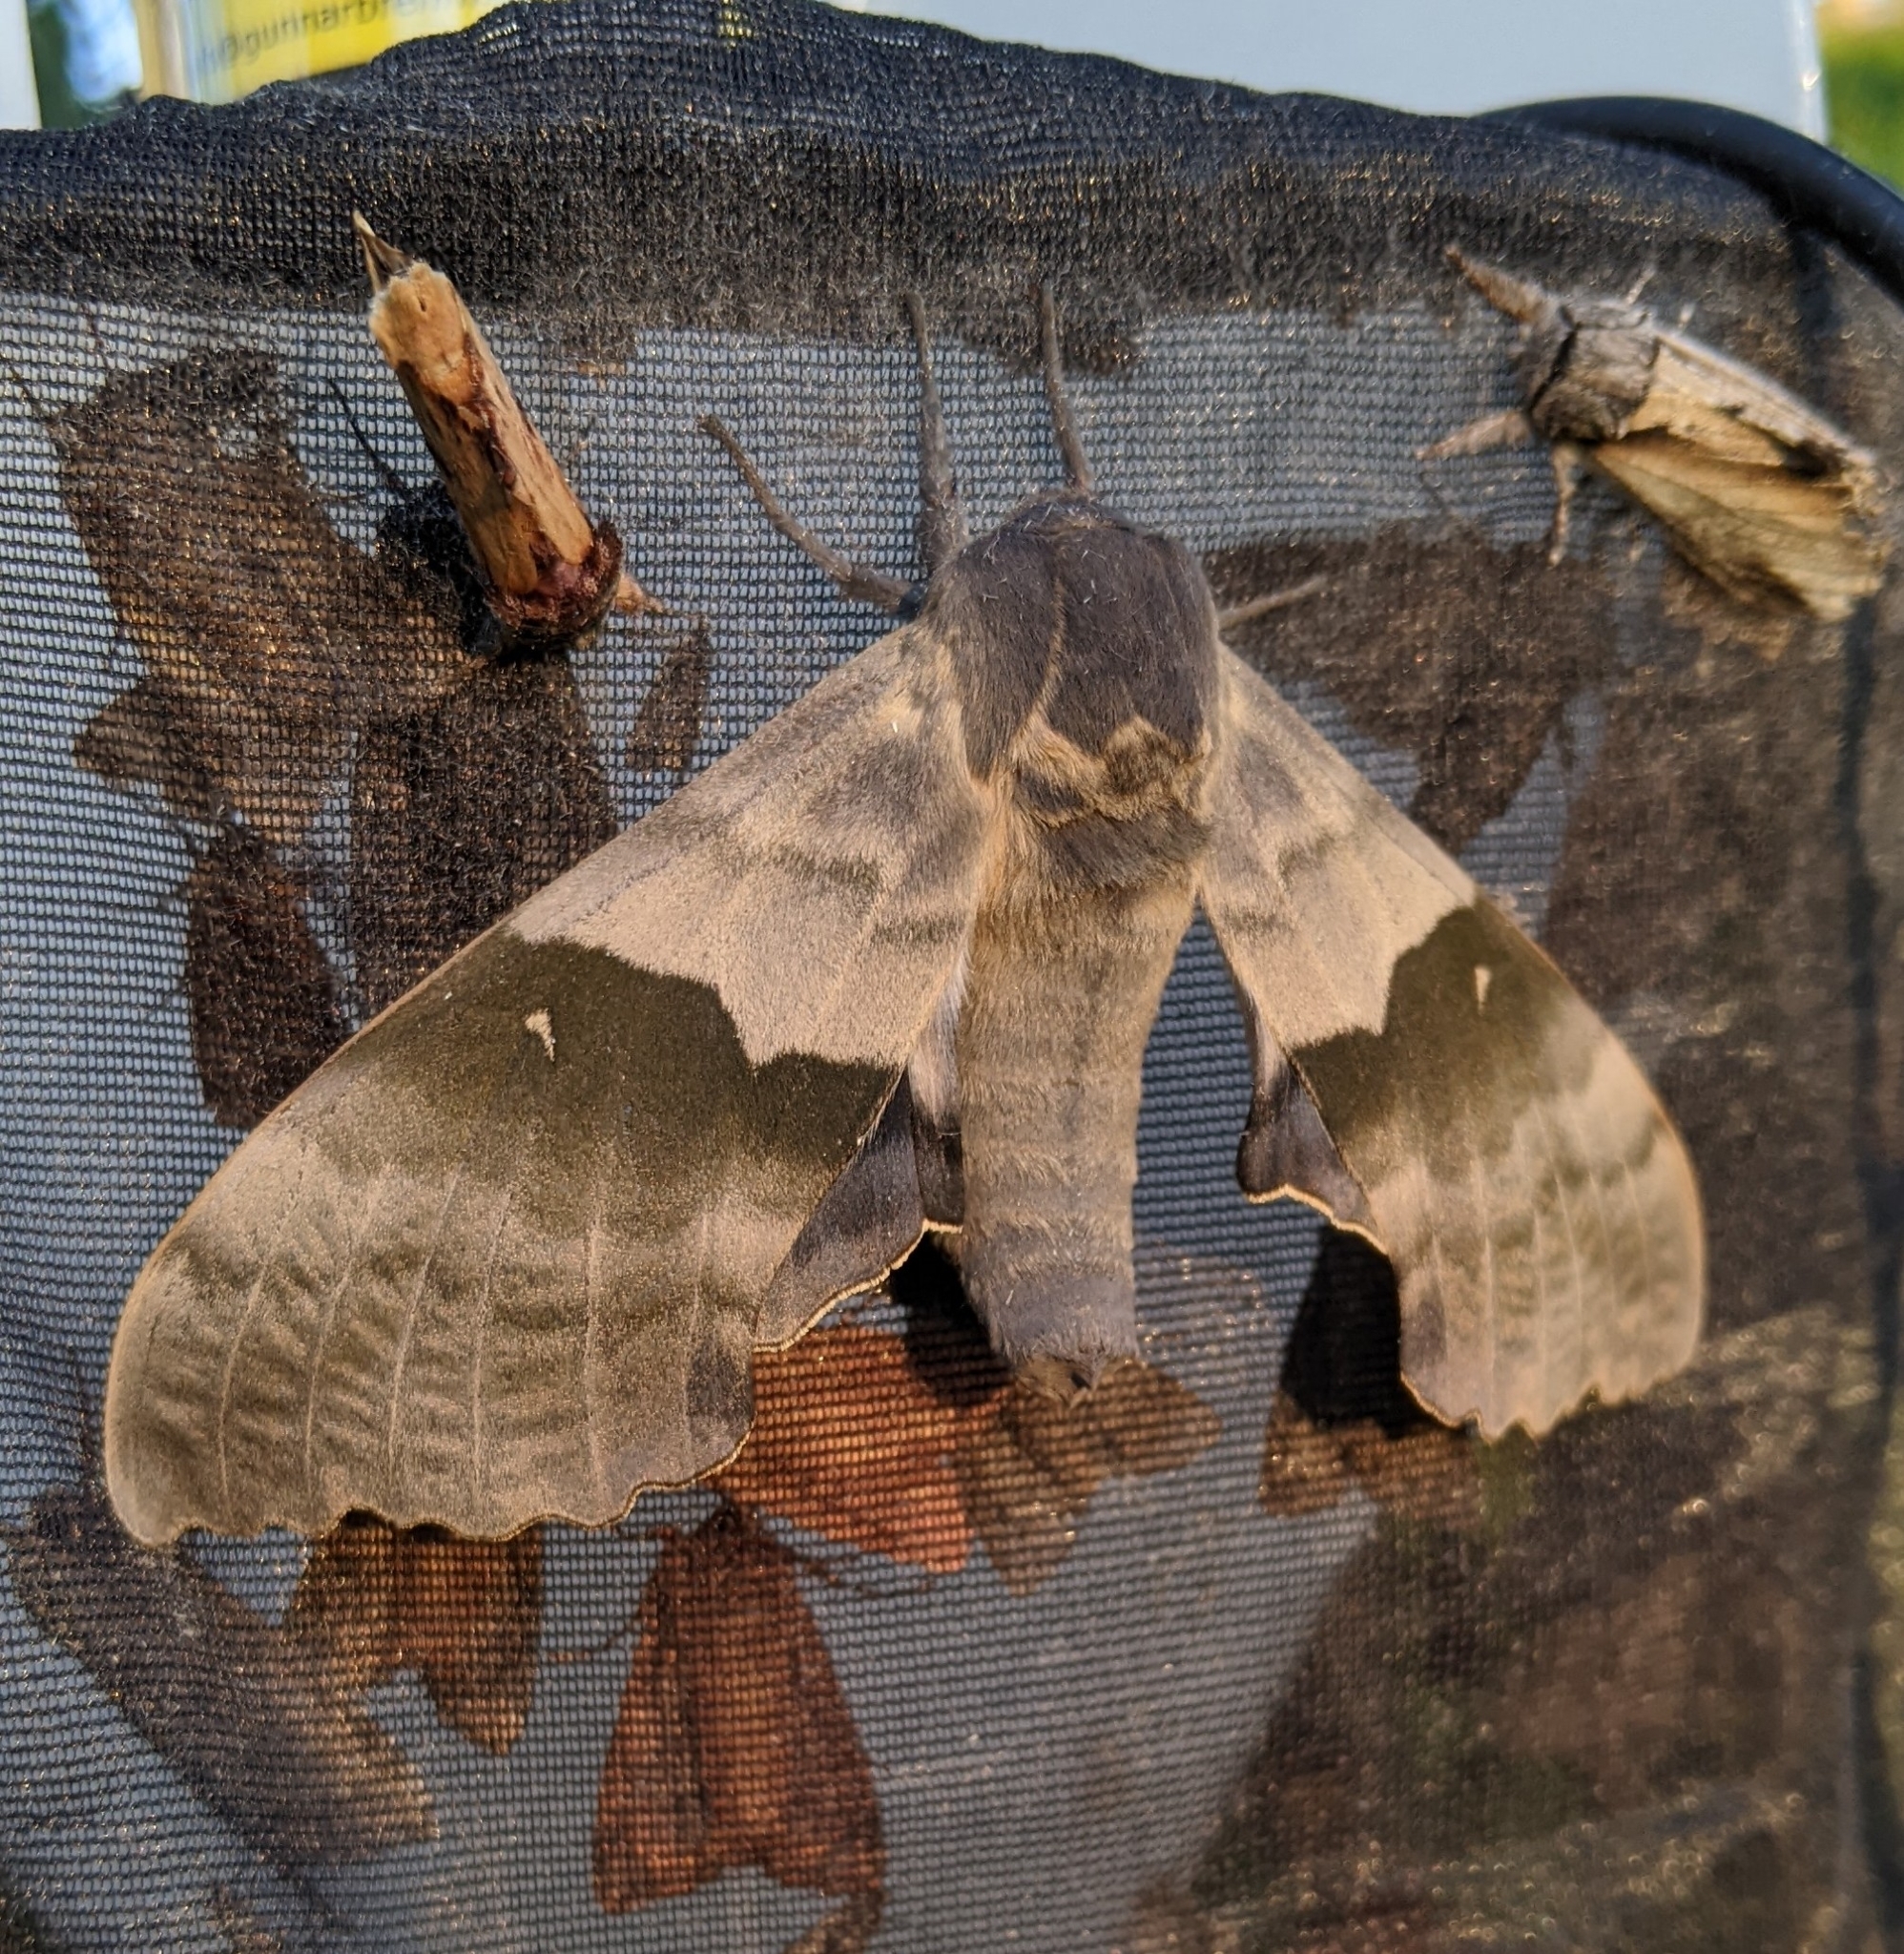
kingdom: Animalia
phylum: Arthropoda
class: Insecta
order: Lepidoptera
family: Sphingidae
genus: Pachysphinx
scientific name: Pachysphinx modesta
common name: Big poplar sphinx
